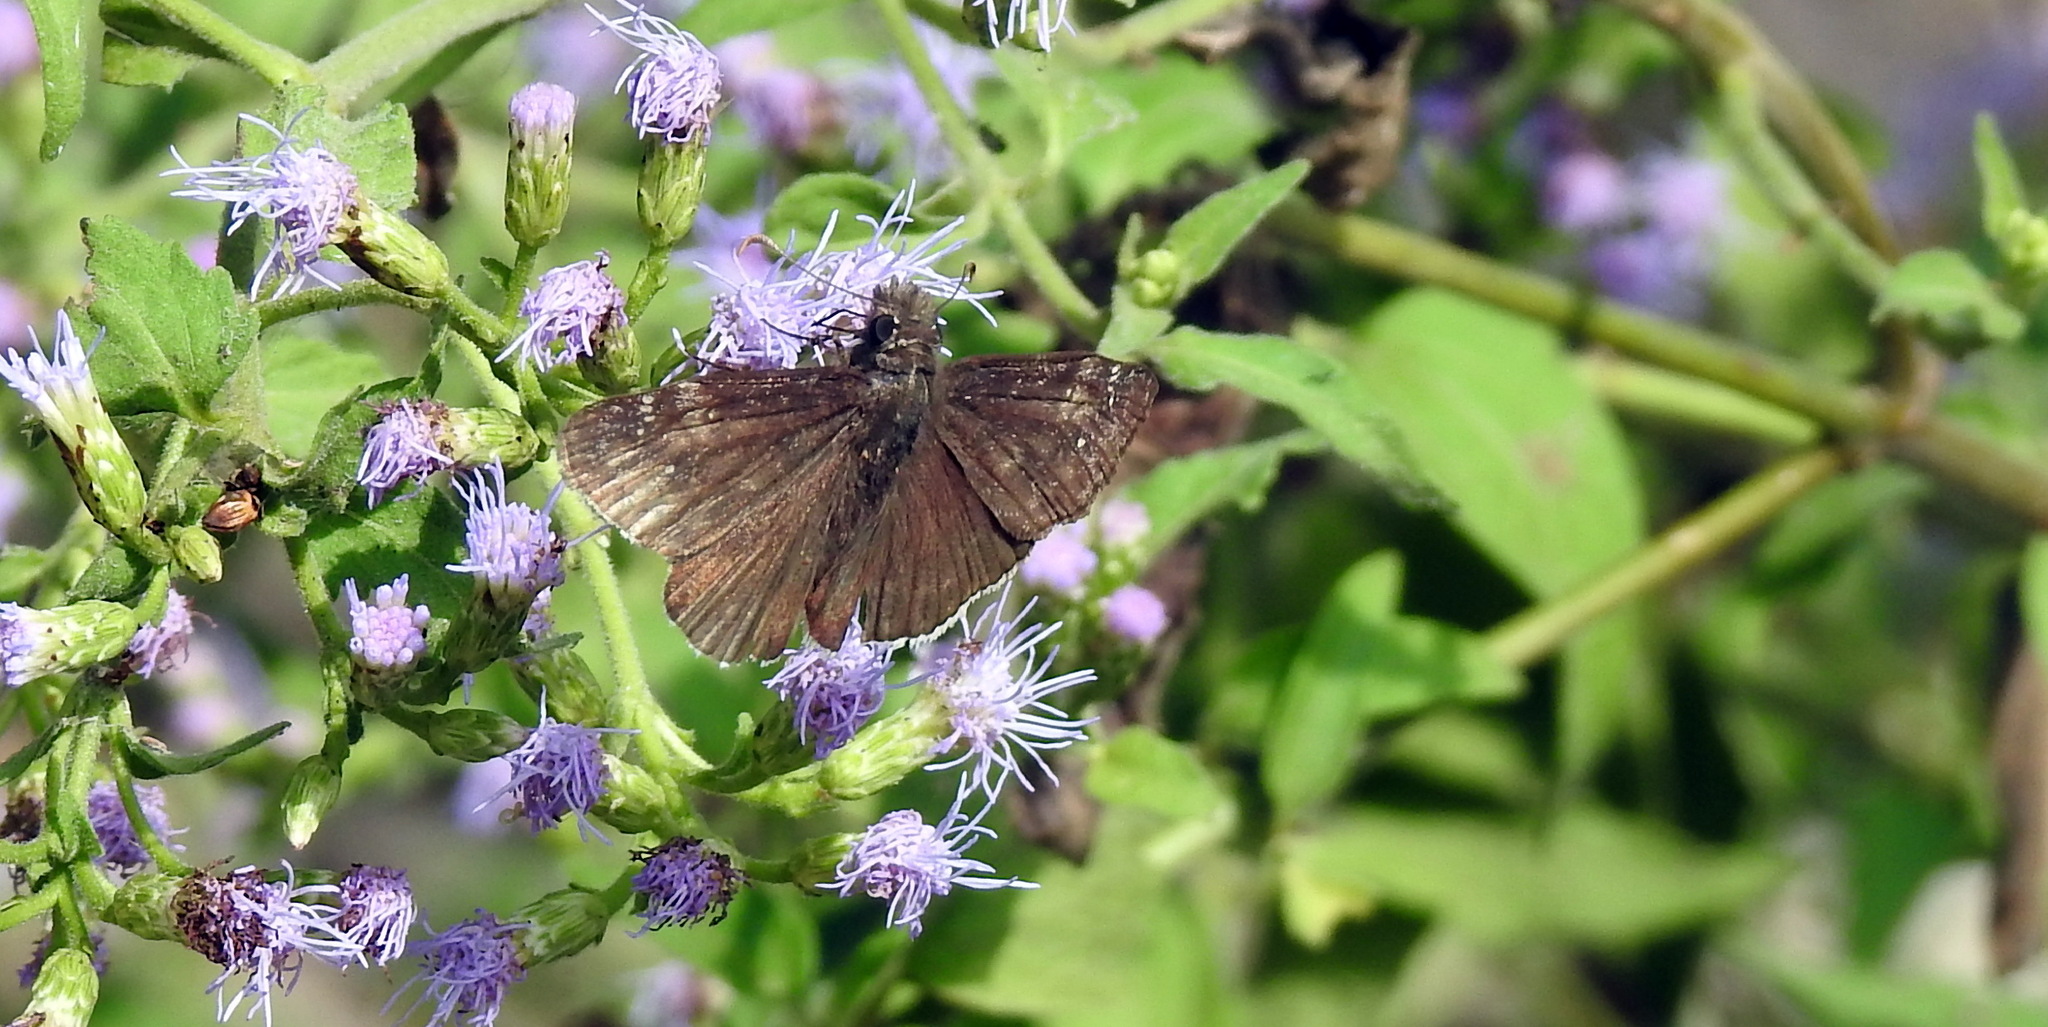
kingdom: Animalia
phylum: Arthropoda
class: Insecta
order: Lepidoptera
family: Hesperiidae
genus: Erynnis
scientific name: Erynnis funeralis
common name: Funereal duskywing
